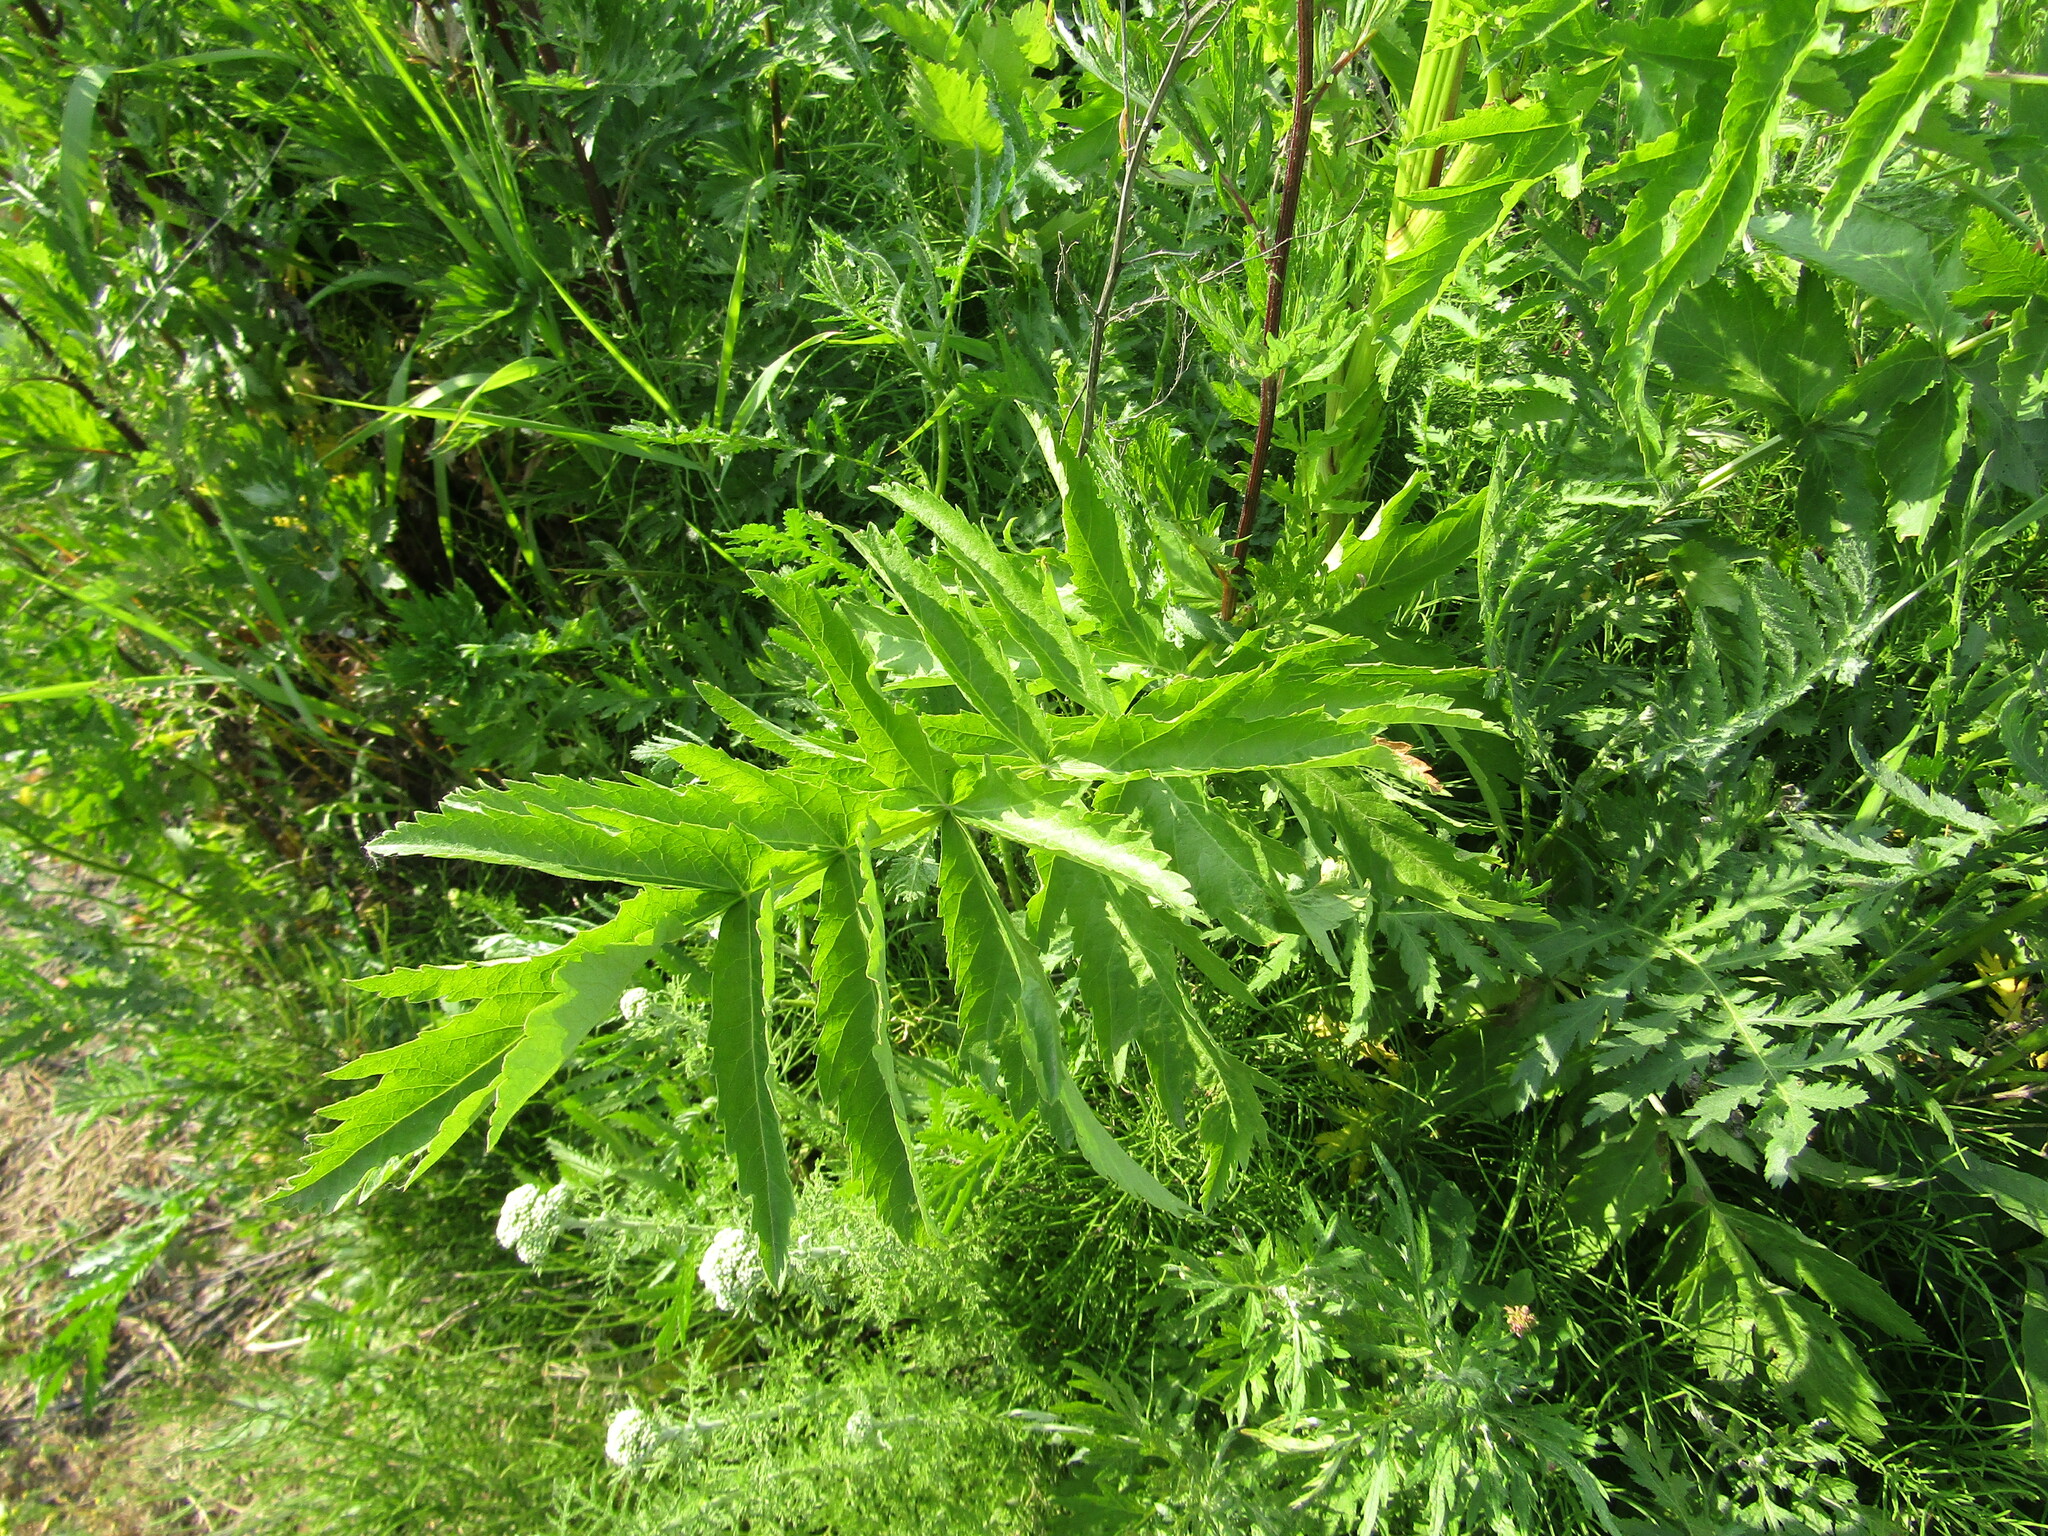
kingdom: Plantae
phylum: Tracheophyta
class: Magnoliopsida
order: Apiales
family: Apiaceae
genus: Pastinaca
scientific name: Pastinaca sativa
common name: Wild parsnip
